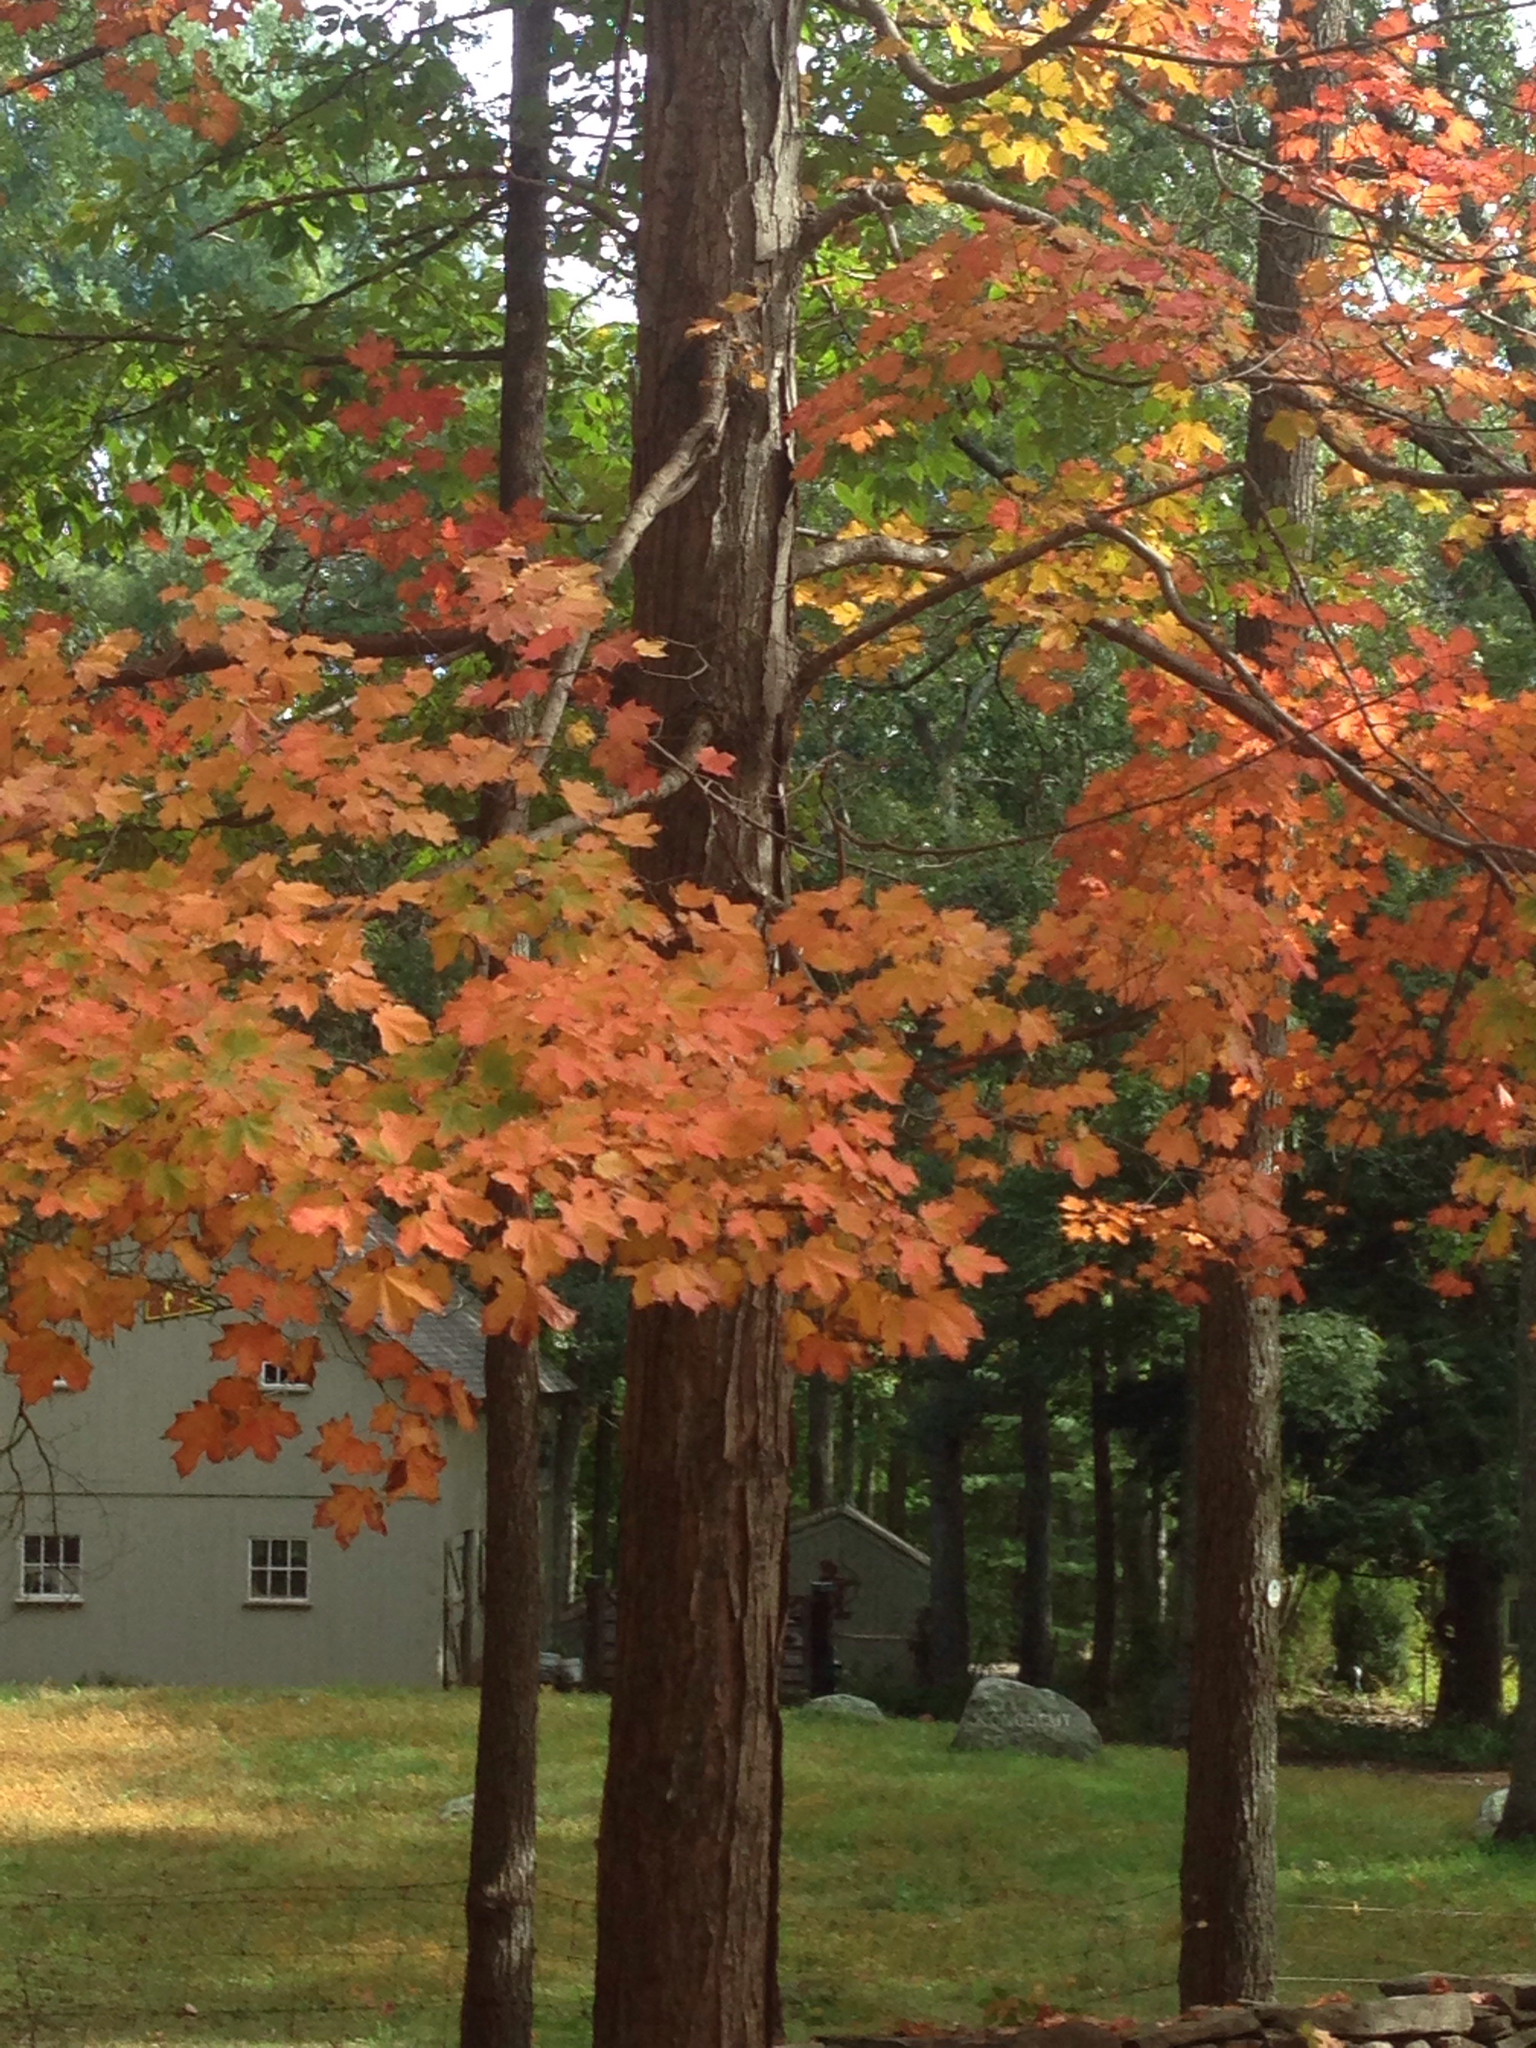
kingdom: Plantae
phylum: Tracheophyta
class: Magnoliopsida
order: Sapindales
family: Sapindaceae
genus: Acer
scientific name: Acer saccharum
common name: Sugar maple
